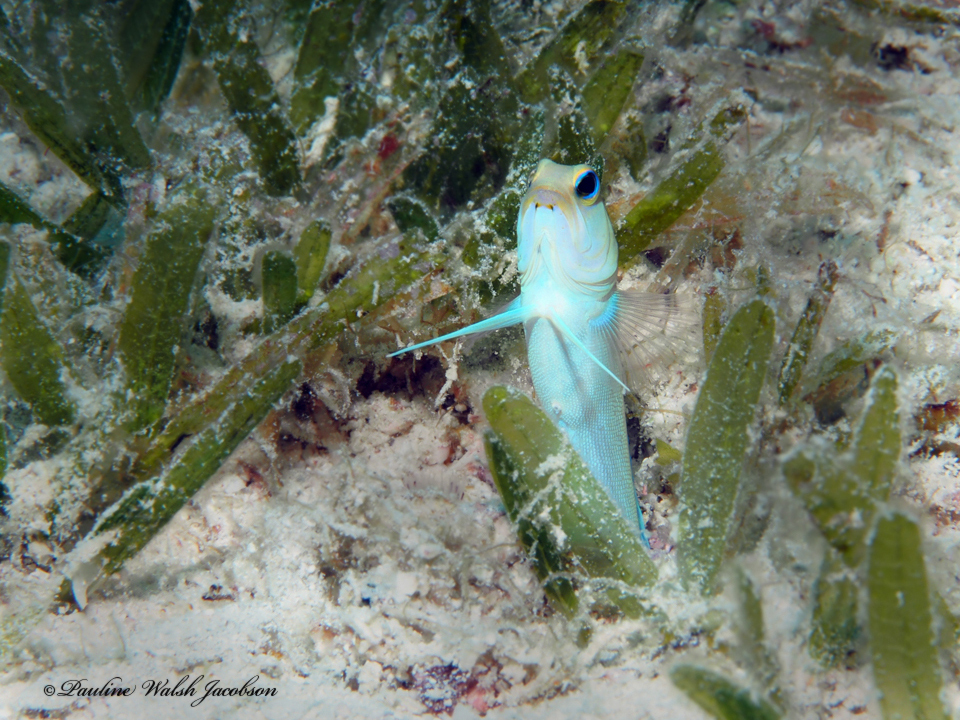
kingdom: Animalia
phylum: Chordata
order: Perciformes
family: Opistognathidae
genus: Opistognathus
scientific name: Opistognathus aurifrons
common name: Yellowhead jawfish
